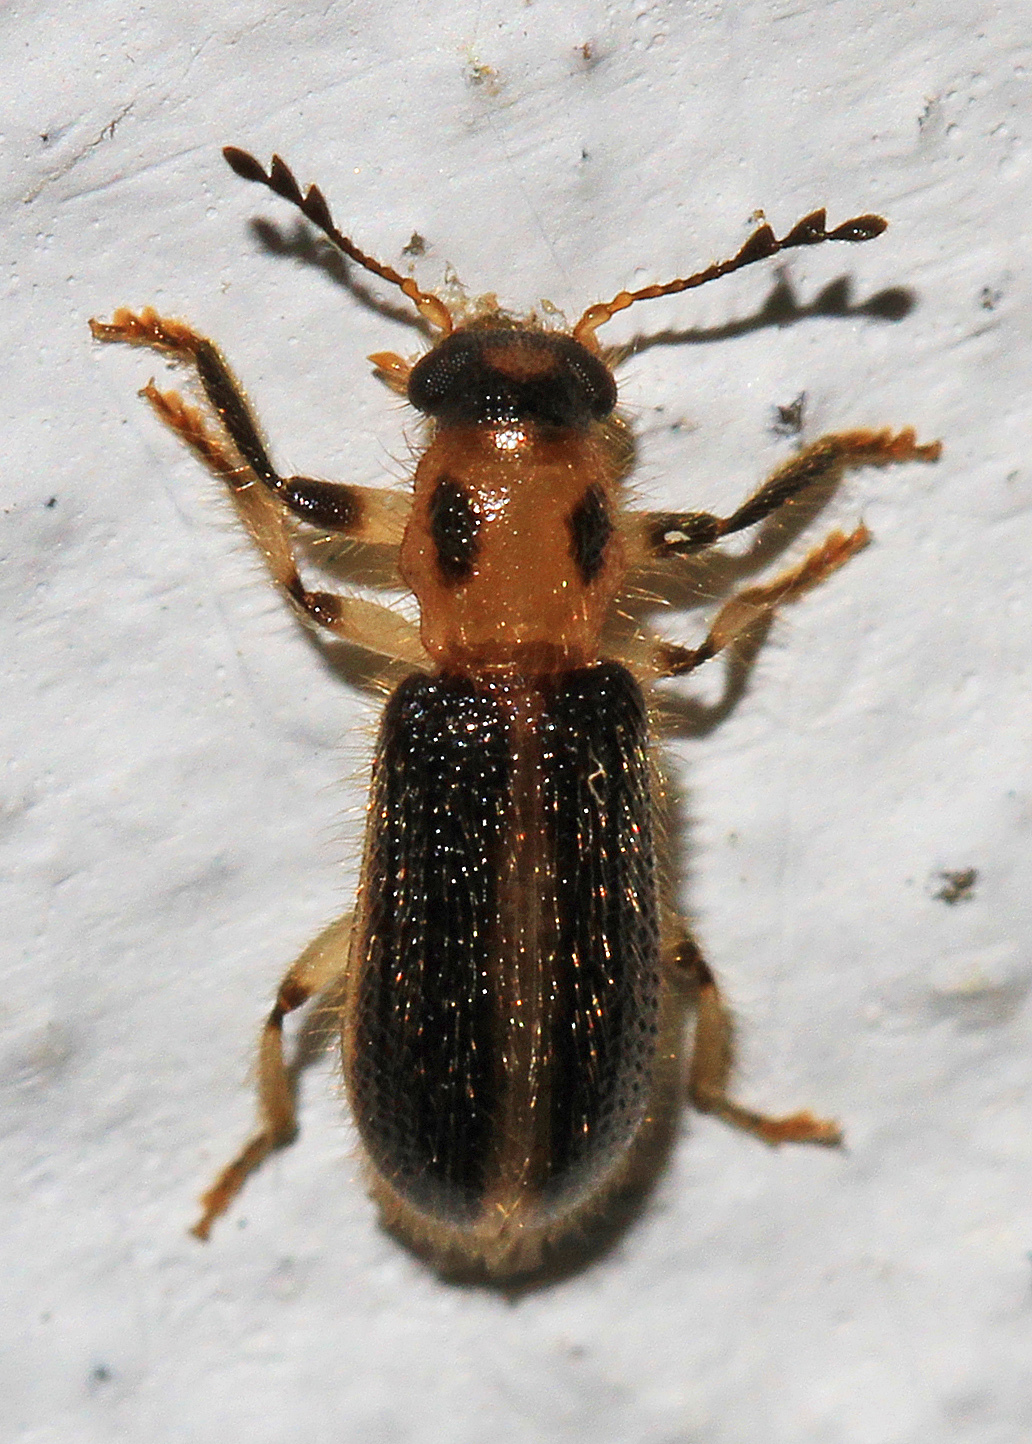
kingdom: Animalia
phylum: Arthropoda
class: Insecta
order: Coleoptera
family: Cleridae
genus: Cregya
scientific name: Cregya oculata
